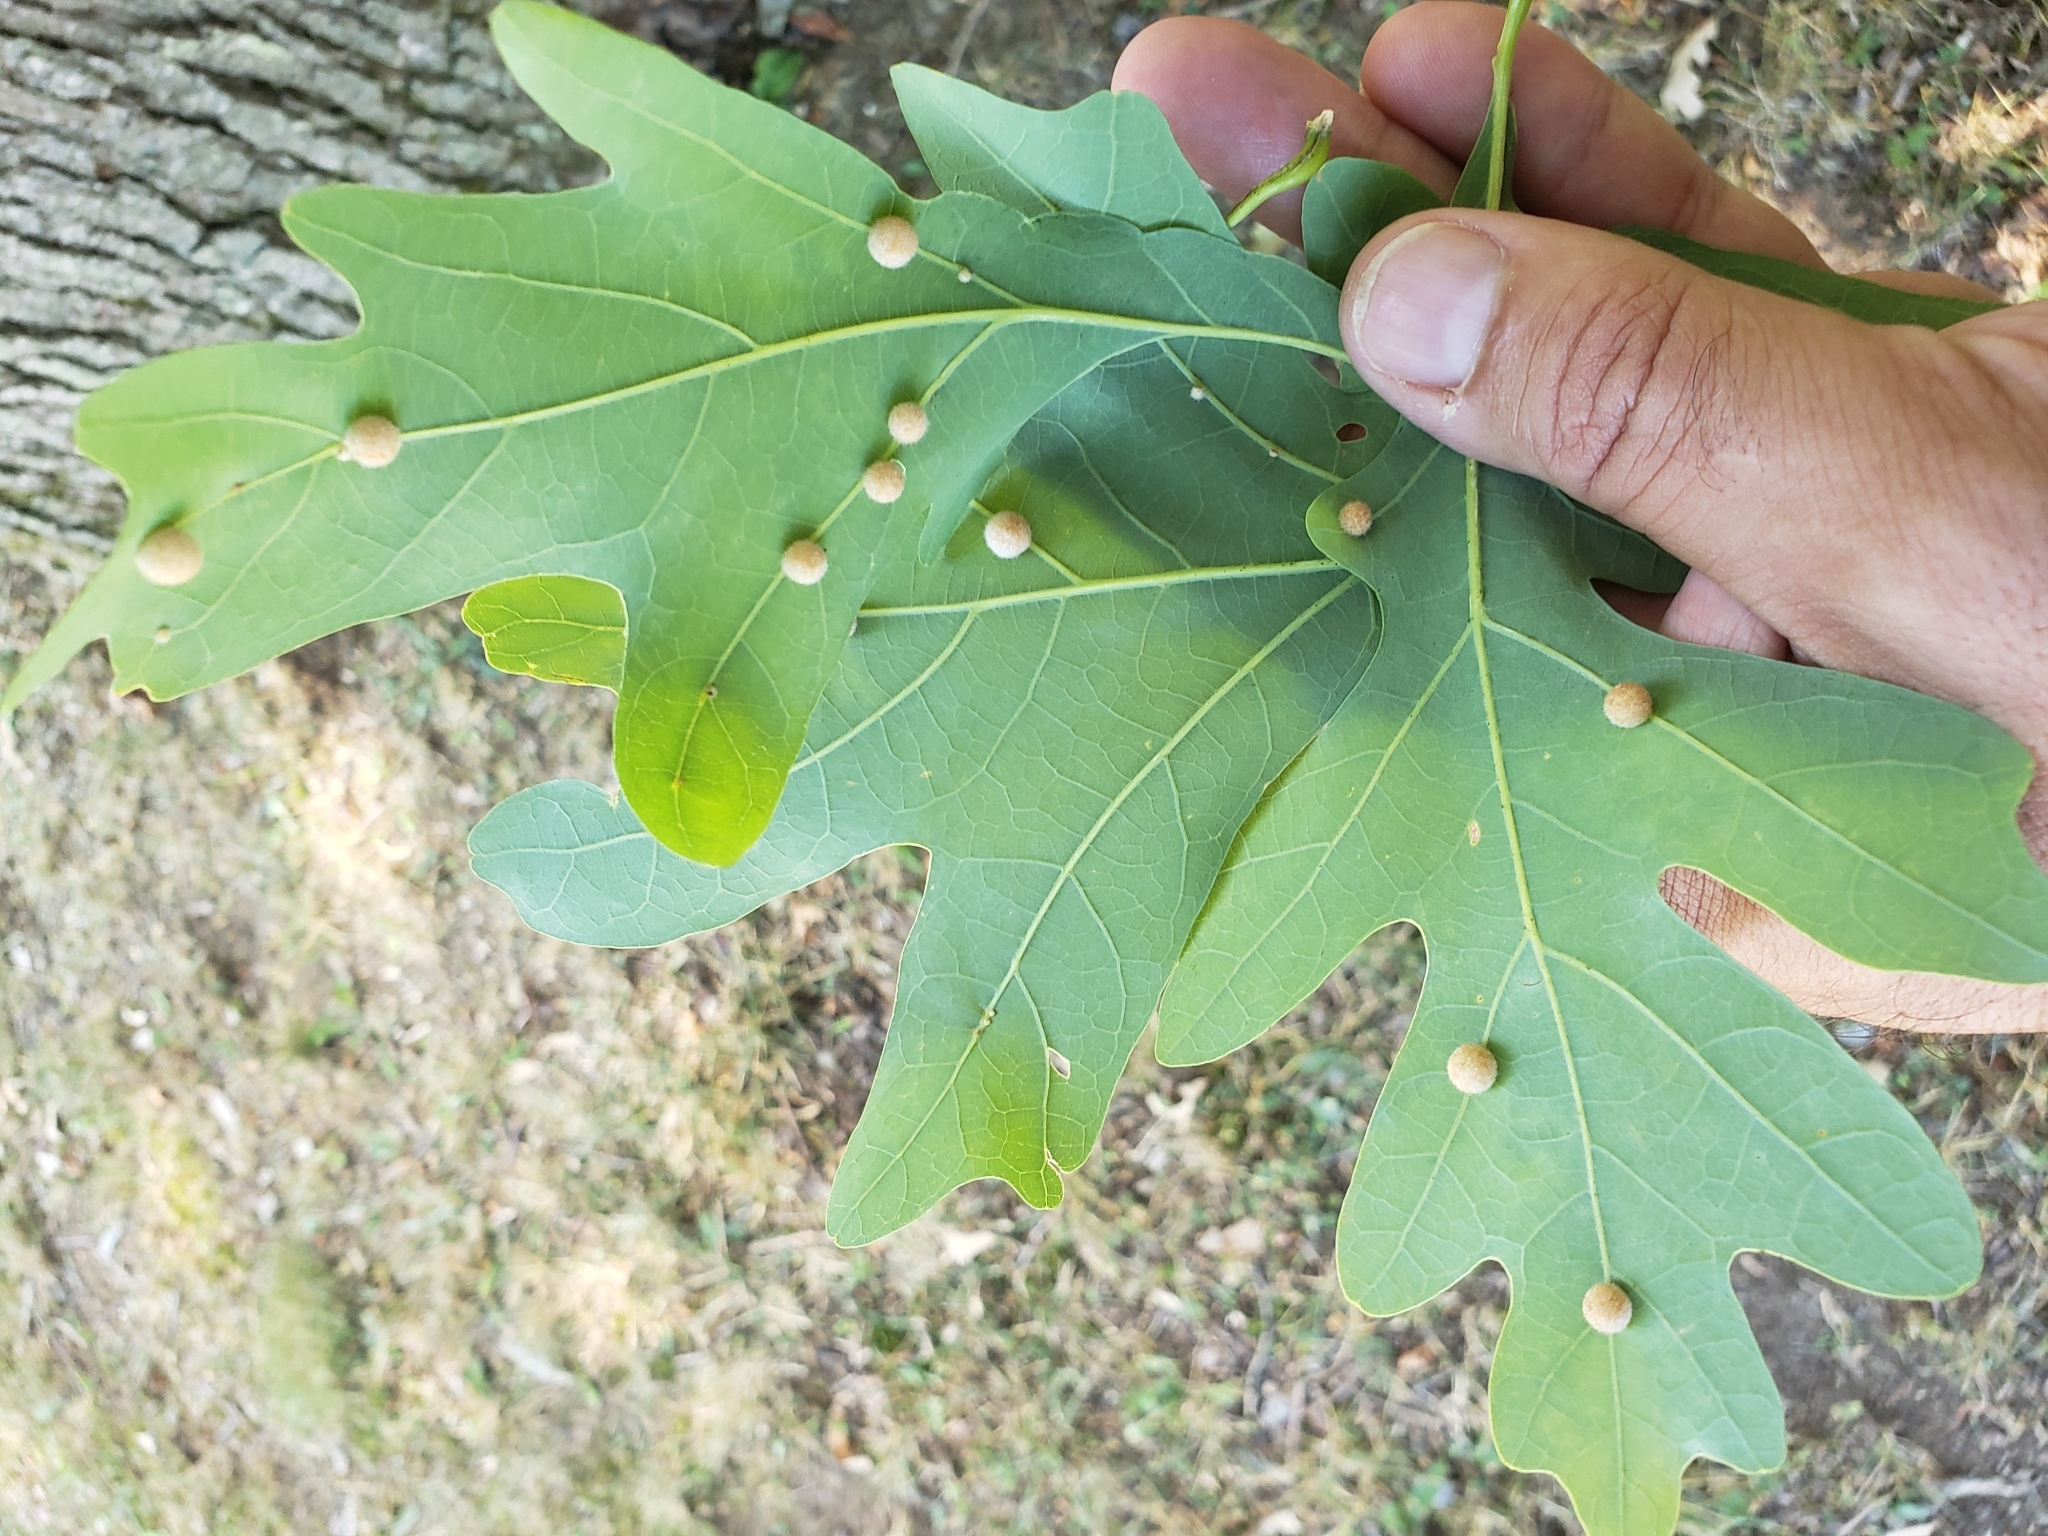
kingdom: Animalia
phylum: Arthropoda
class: Insecta
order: Hymenoptera
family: Cynipidae
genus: Philonix
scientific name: Philonix fulvicollis
